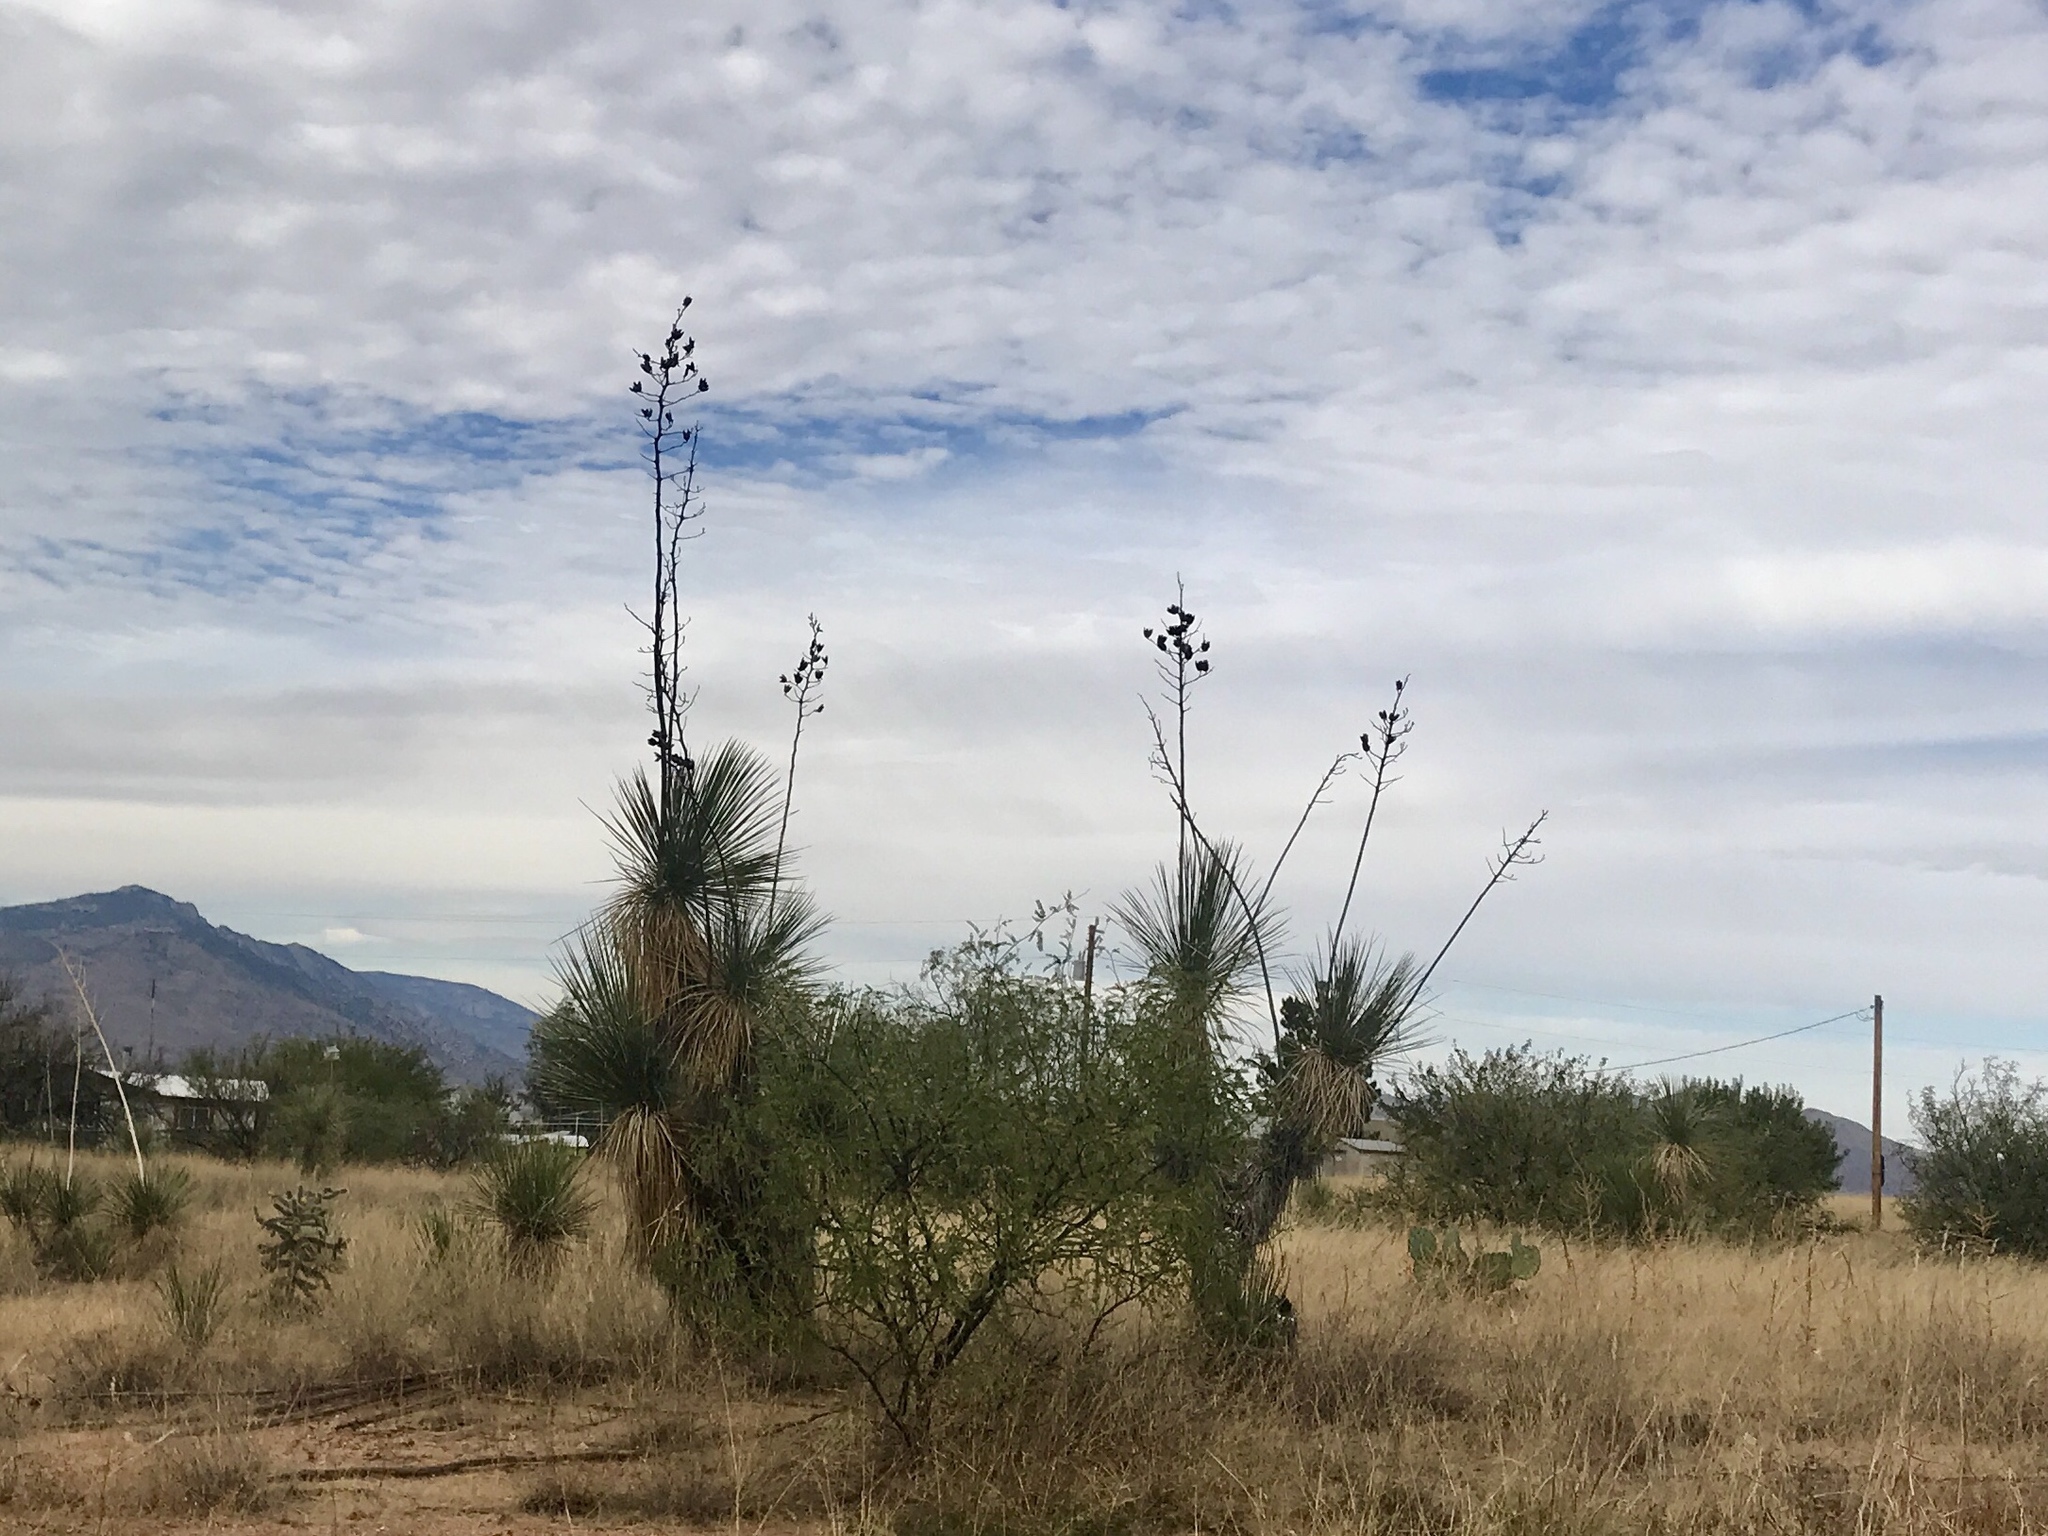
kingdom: Plantae
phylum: Tracheophyta
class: Liliopsida
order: Asparagales
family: Asparagaceae
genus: Yucca
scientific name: Yucca elata
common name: Palmella
